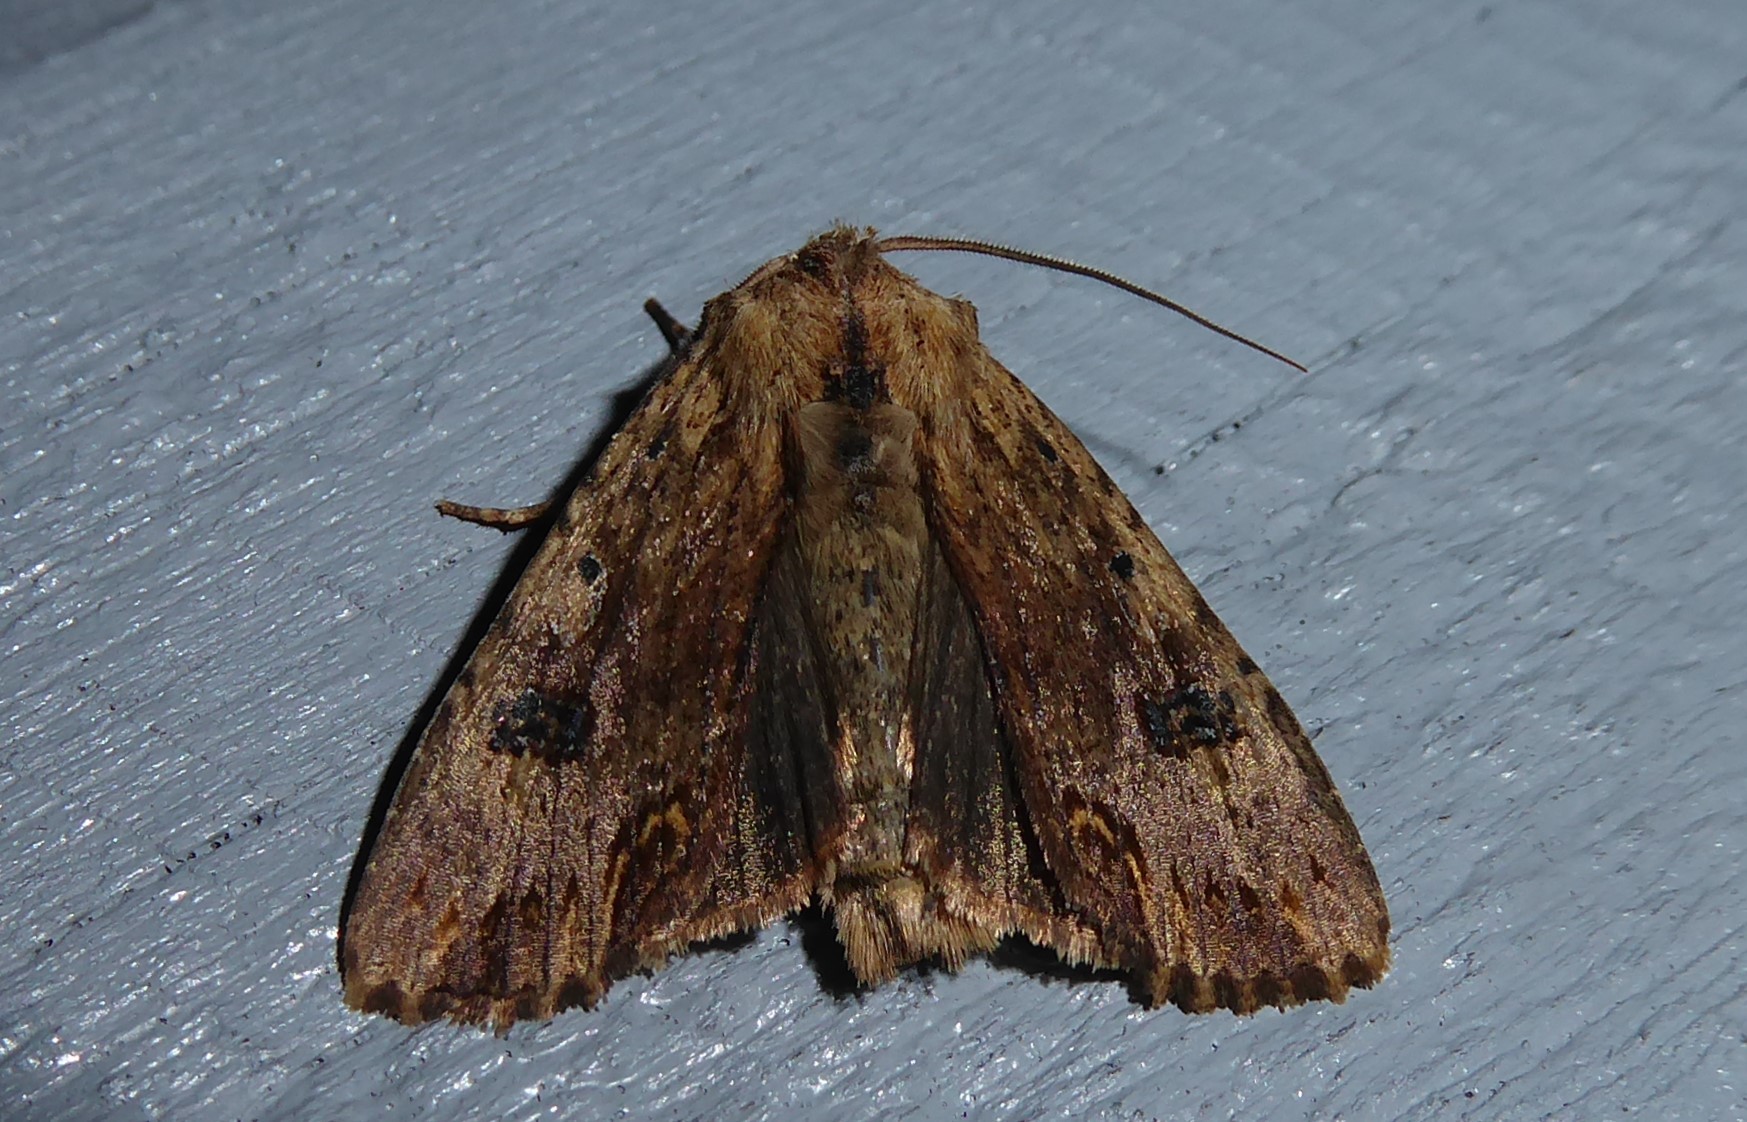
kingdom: Animalia
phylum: Arthropoda
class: Insecta
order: Lepidoptera
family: Noctuidae
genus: Ichneutica
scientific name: Ichneutica
